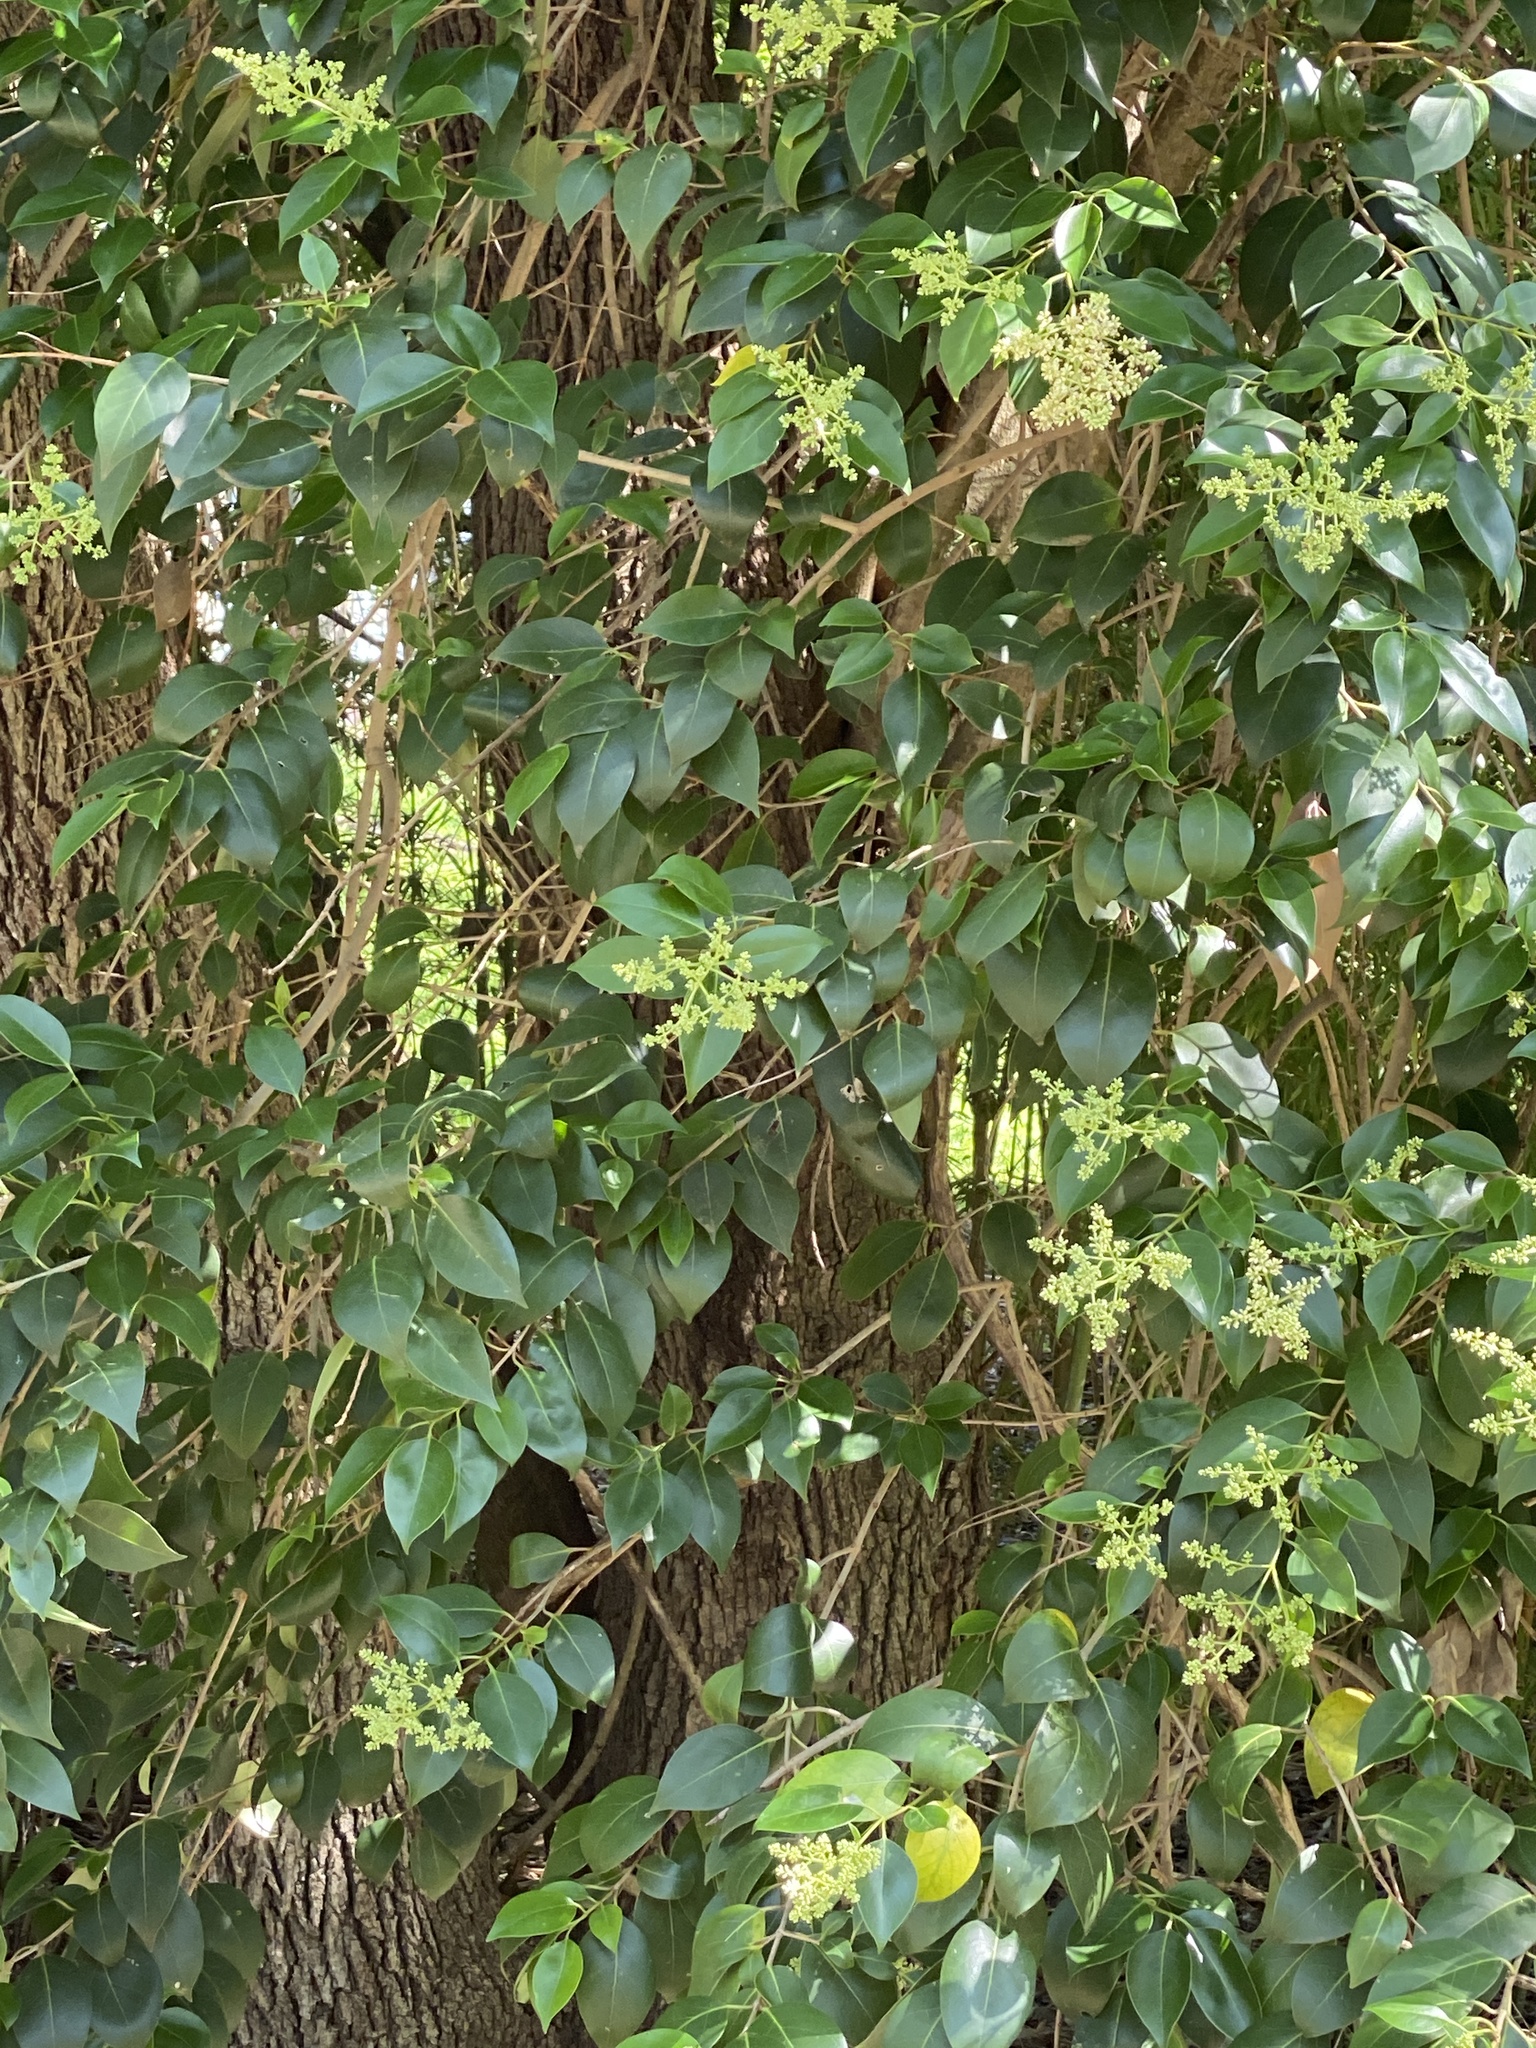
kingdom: Plantae
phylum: Tracheophyta
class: Magnoliopsida
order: Lamiales
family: Oleaceae
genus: Ligustrum
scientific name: Ligustrum lucidum
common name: Glossy privet
